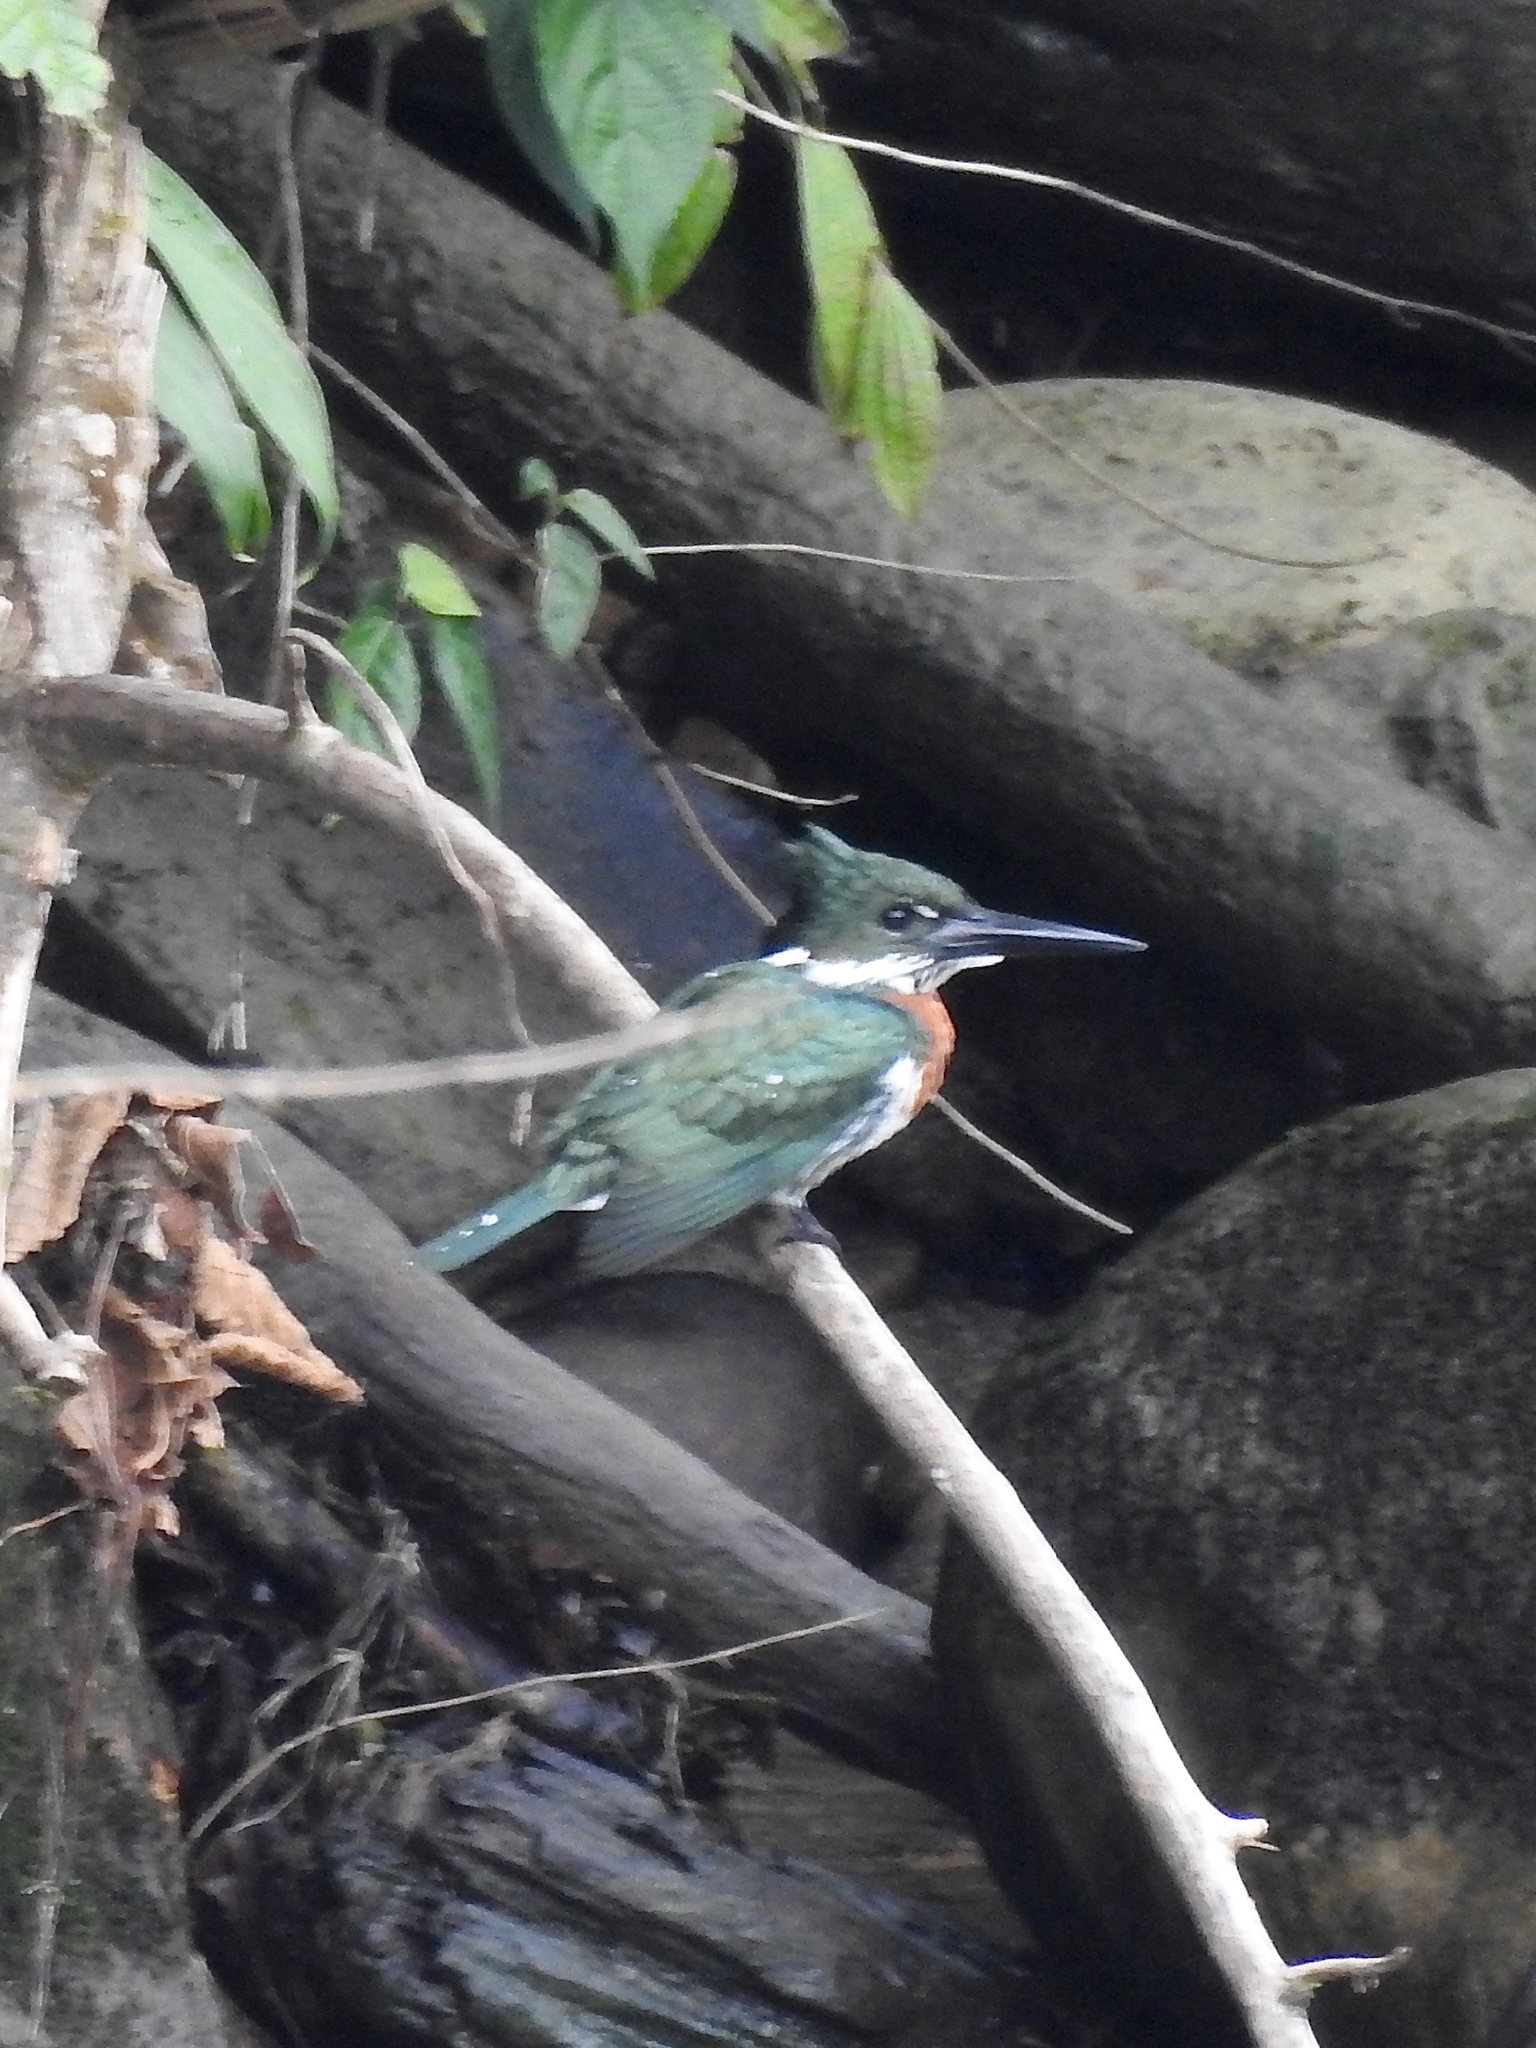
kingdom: Animalia
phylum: Chordata
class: Aves
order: Coraciiformes
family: Alcedinidae
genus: Chloroceryle
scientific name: Chloroceryle amazona
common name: Amazon kingfisher
